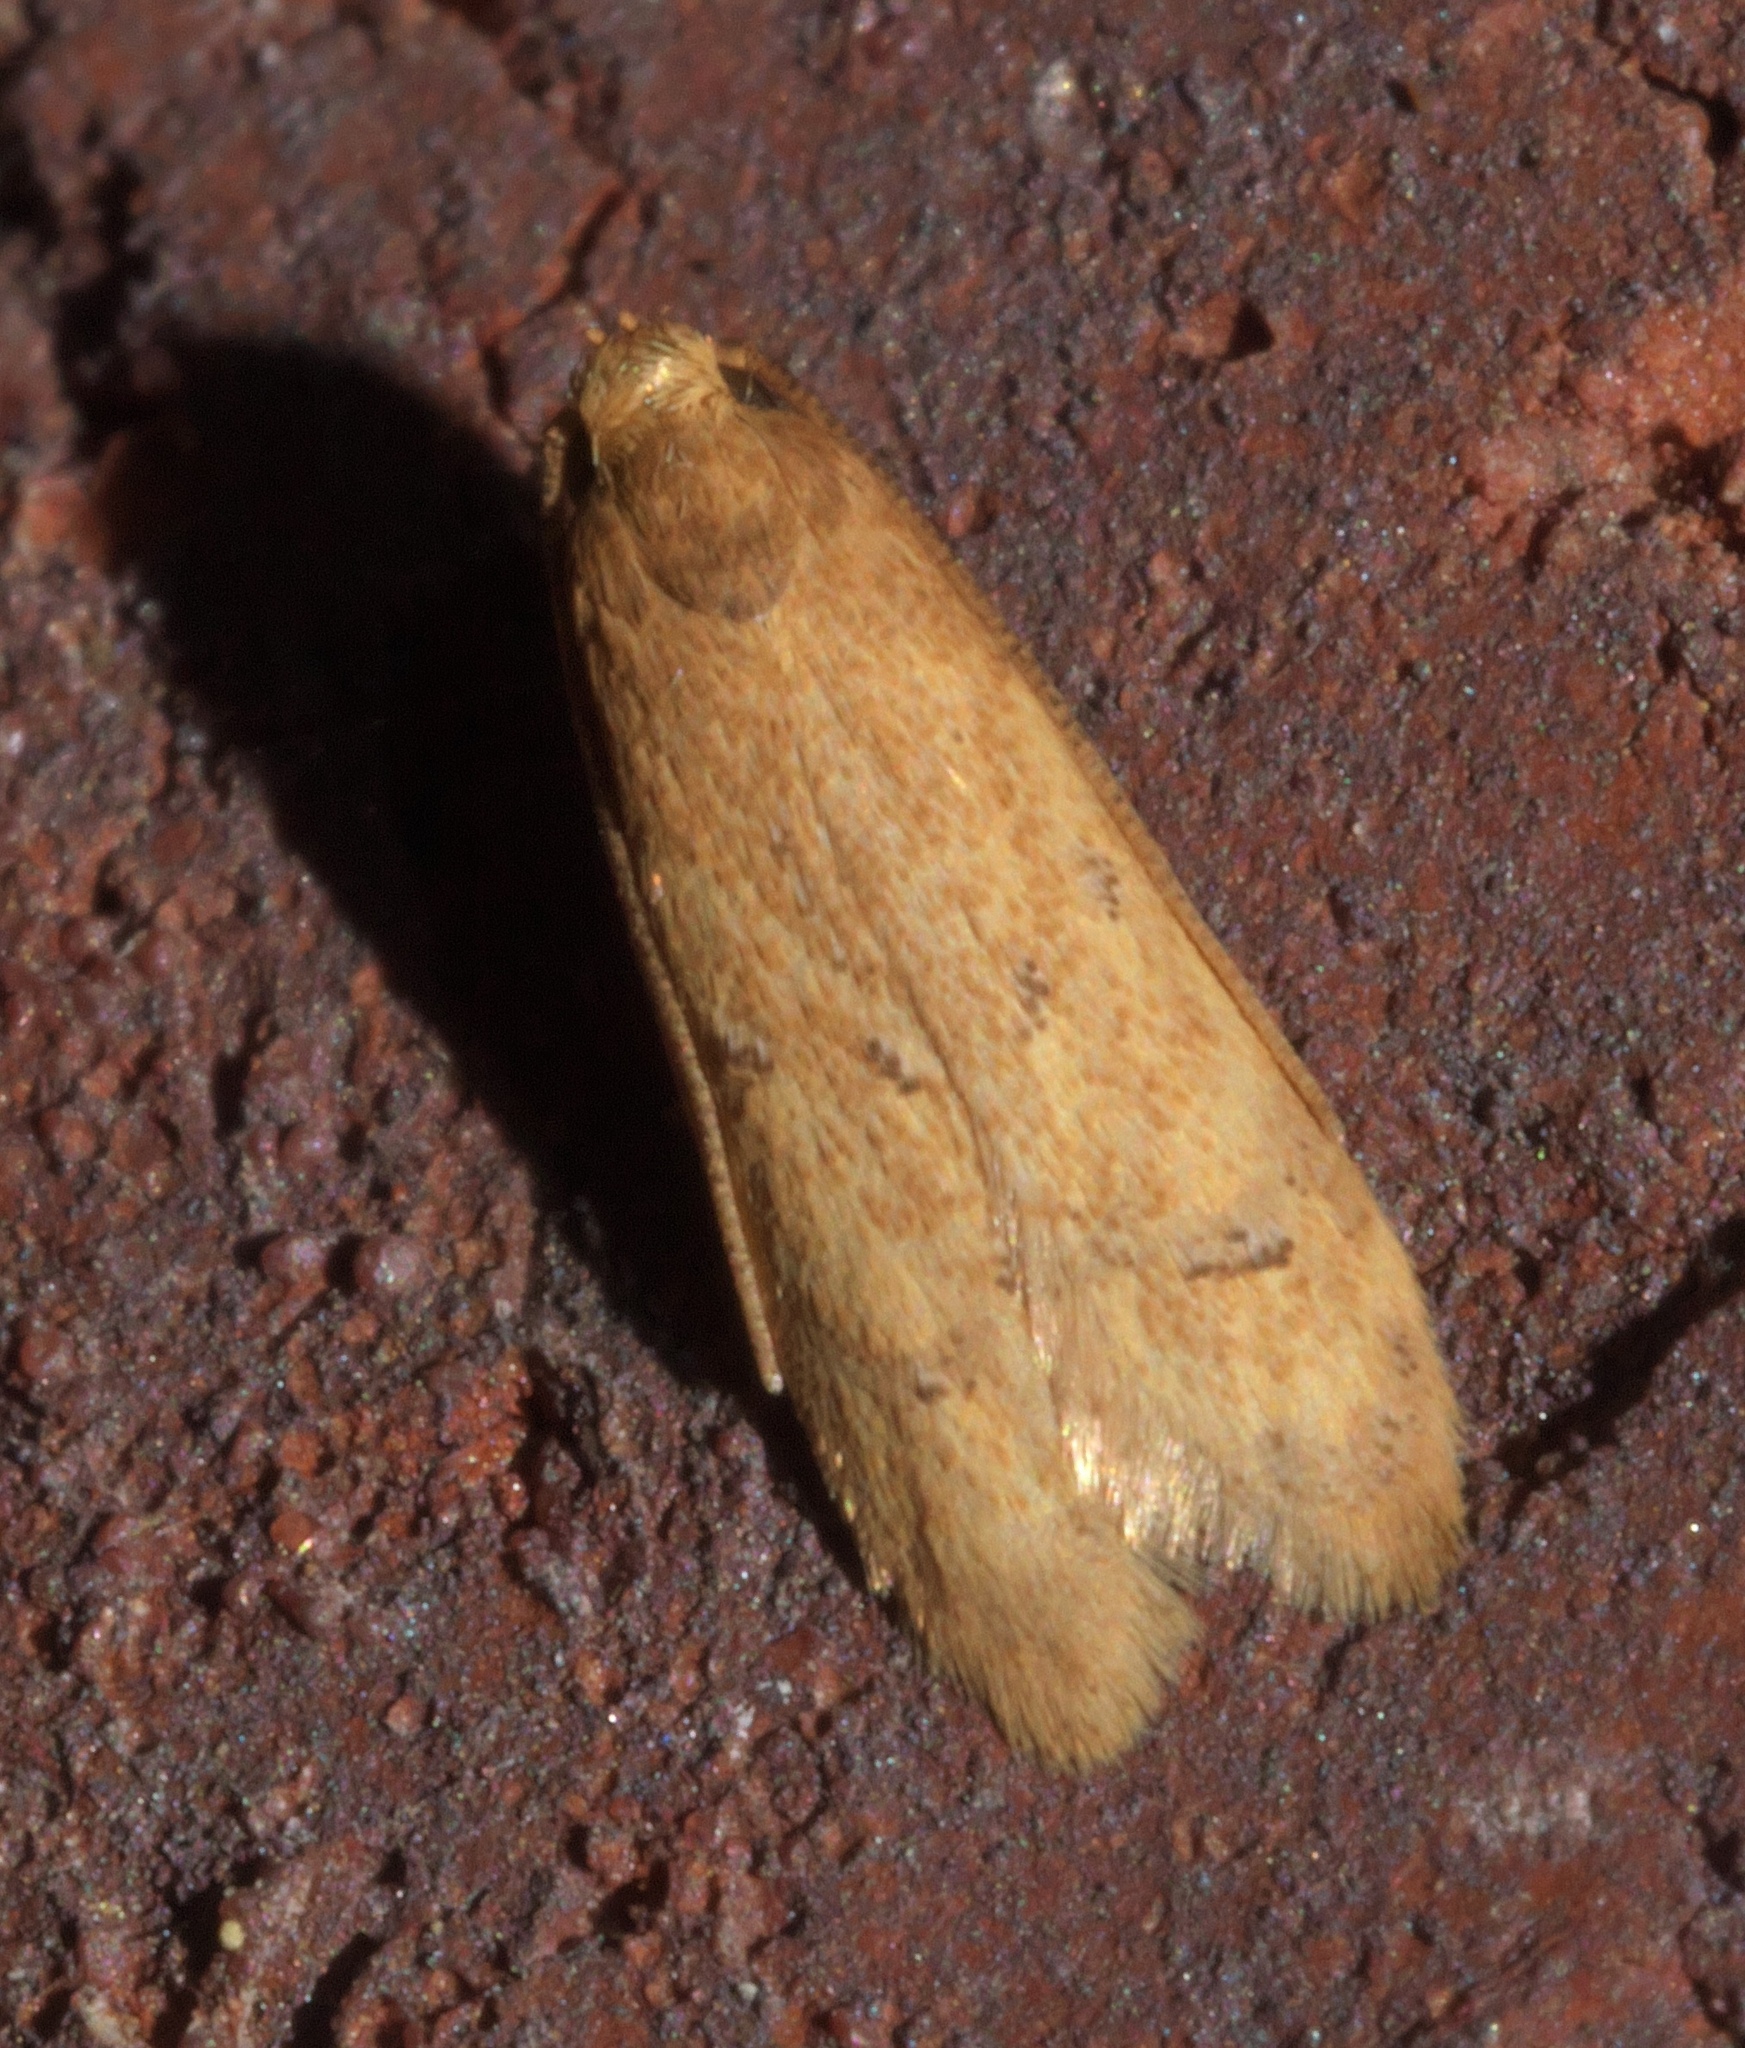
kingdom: Animalia
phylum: Arthropoda
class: Insecta
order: Lepidoptera
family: Autostichidae
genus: Gerdana
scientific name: Gerdana caritella
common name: Gerdana moth
